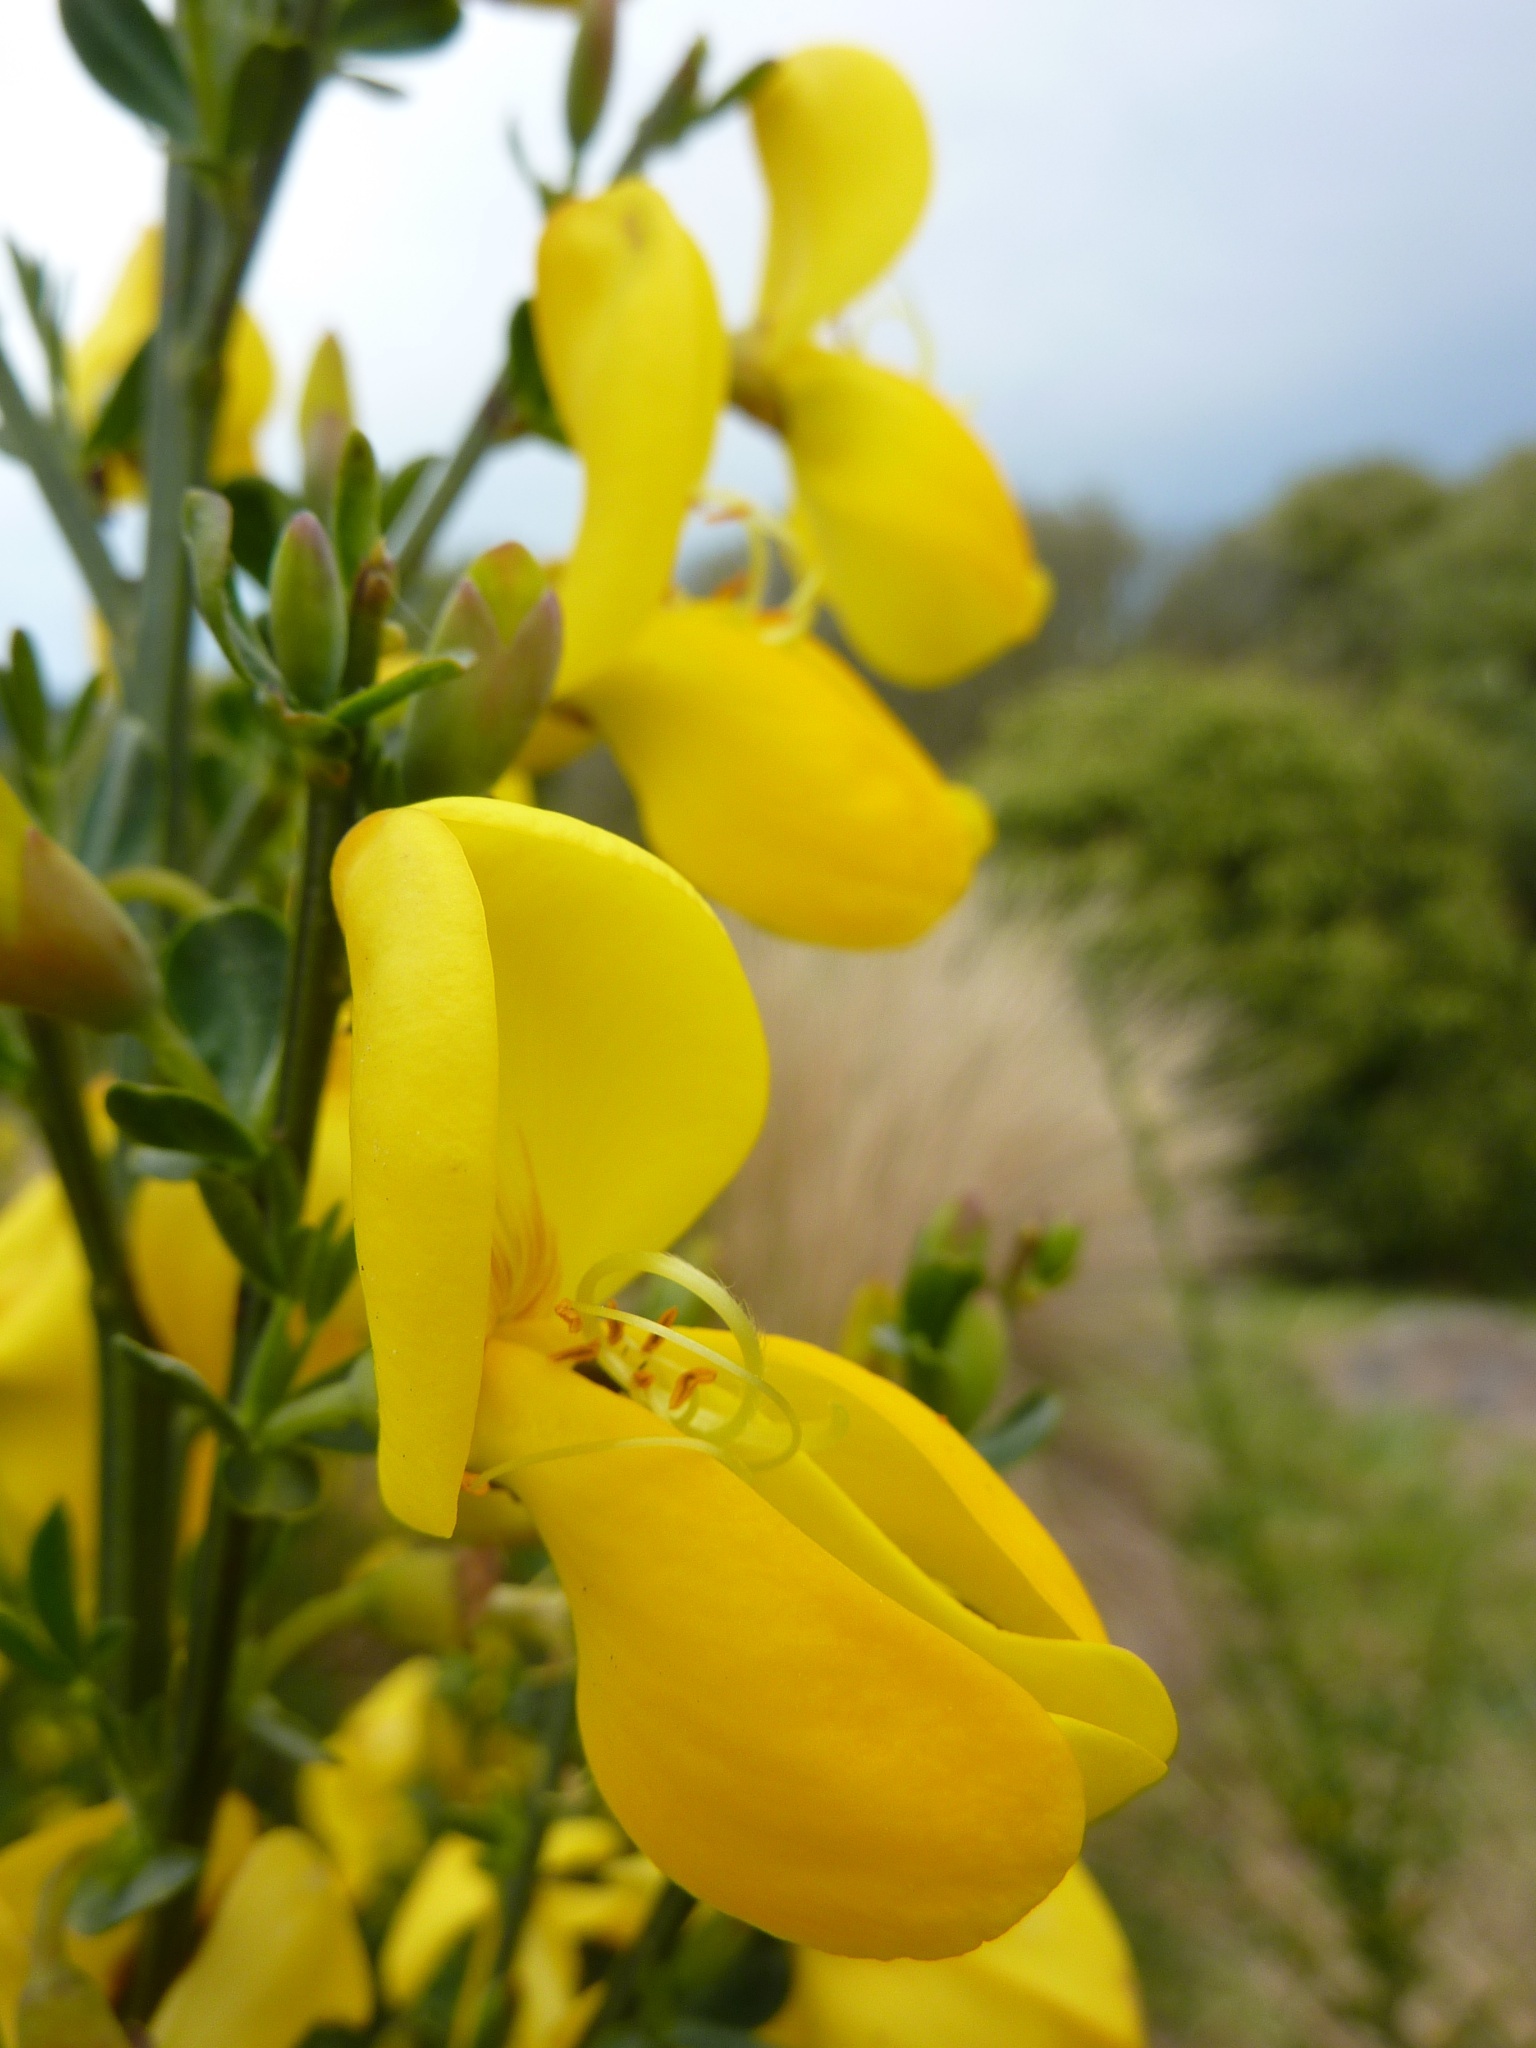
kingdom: Plantae
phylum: Tracheophyta
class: Magnoliopsida
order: Fabales
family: Fabaceae
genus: Cytisus
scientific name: Cytisus scoparius
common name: Scotch broom
